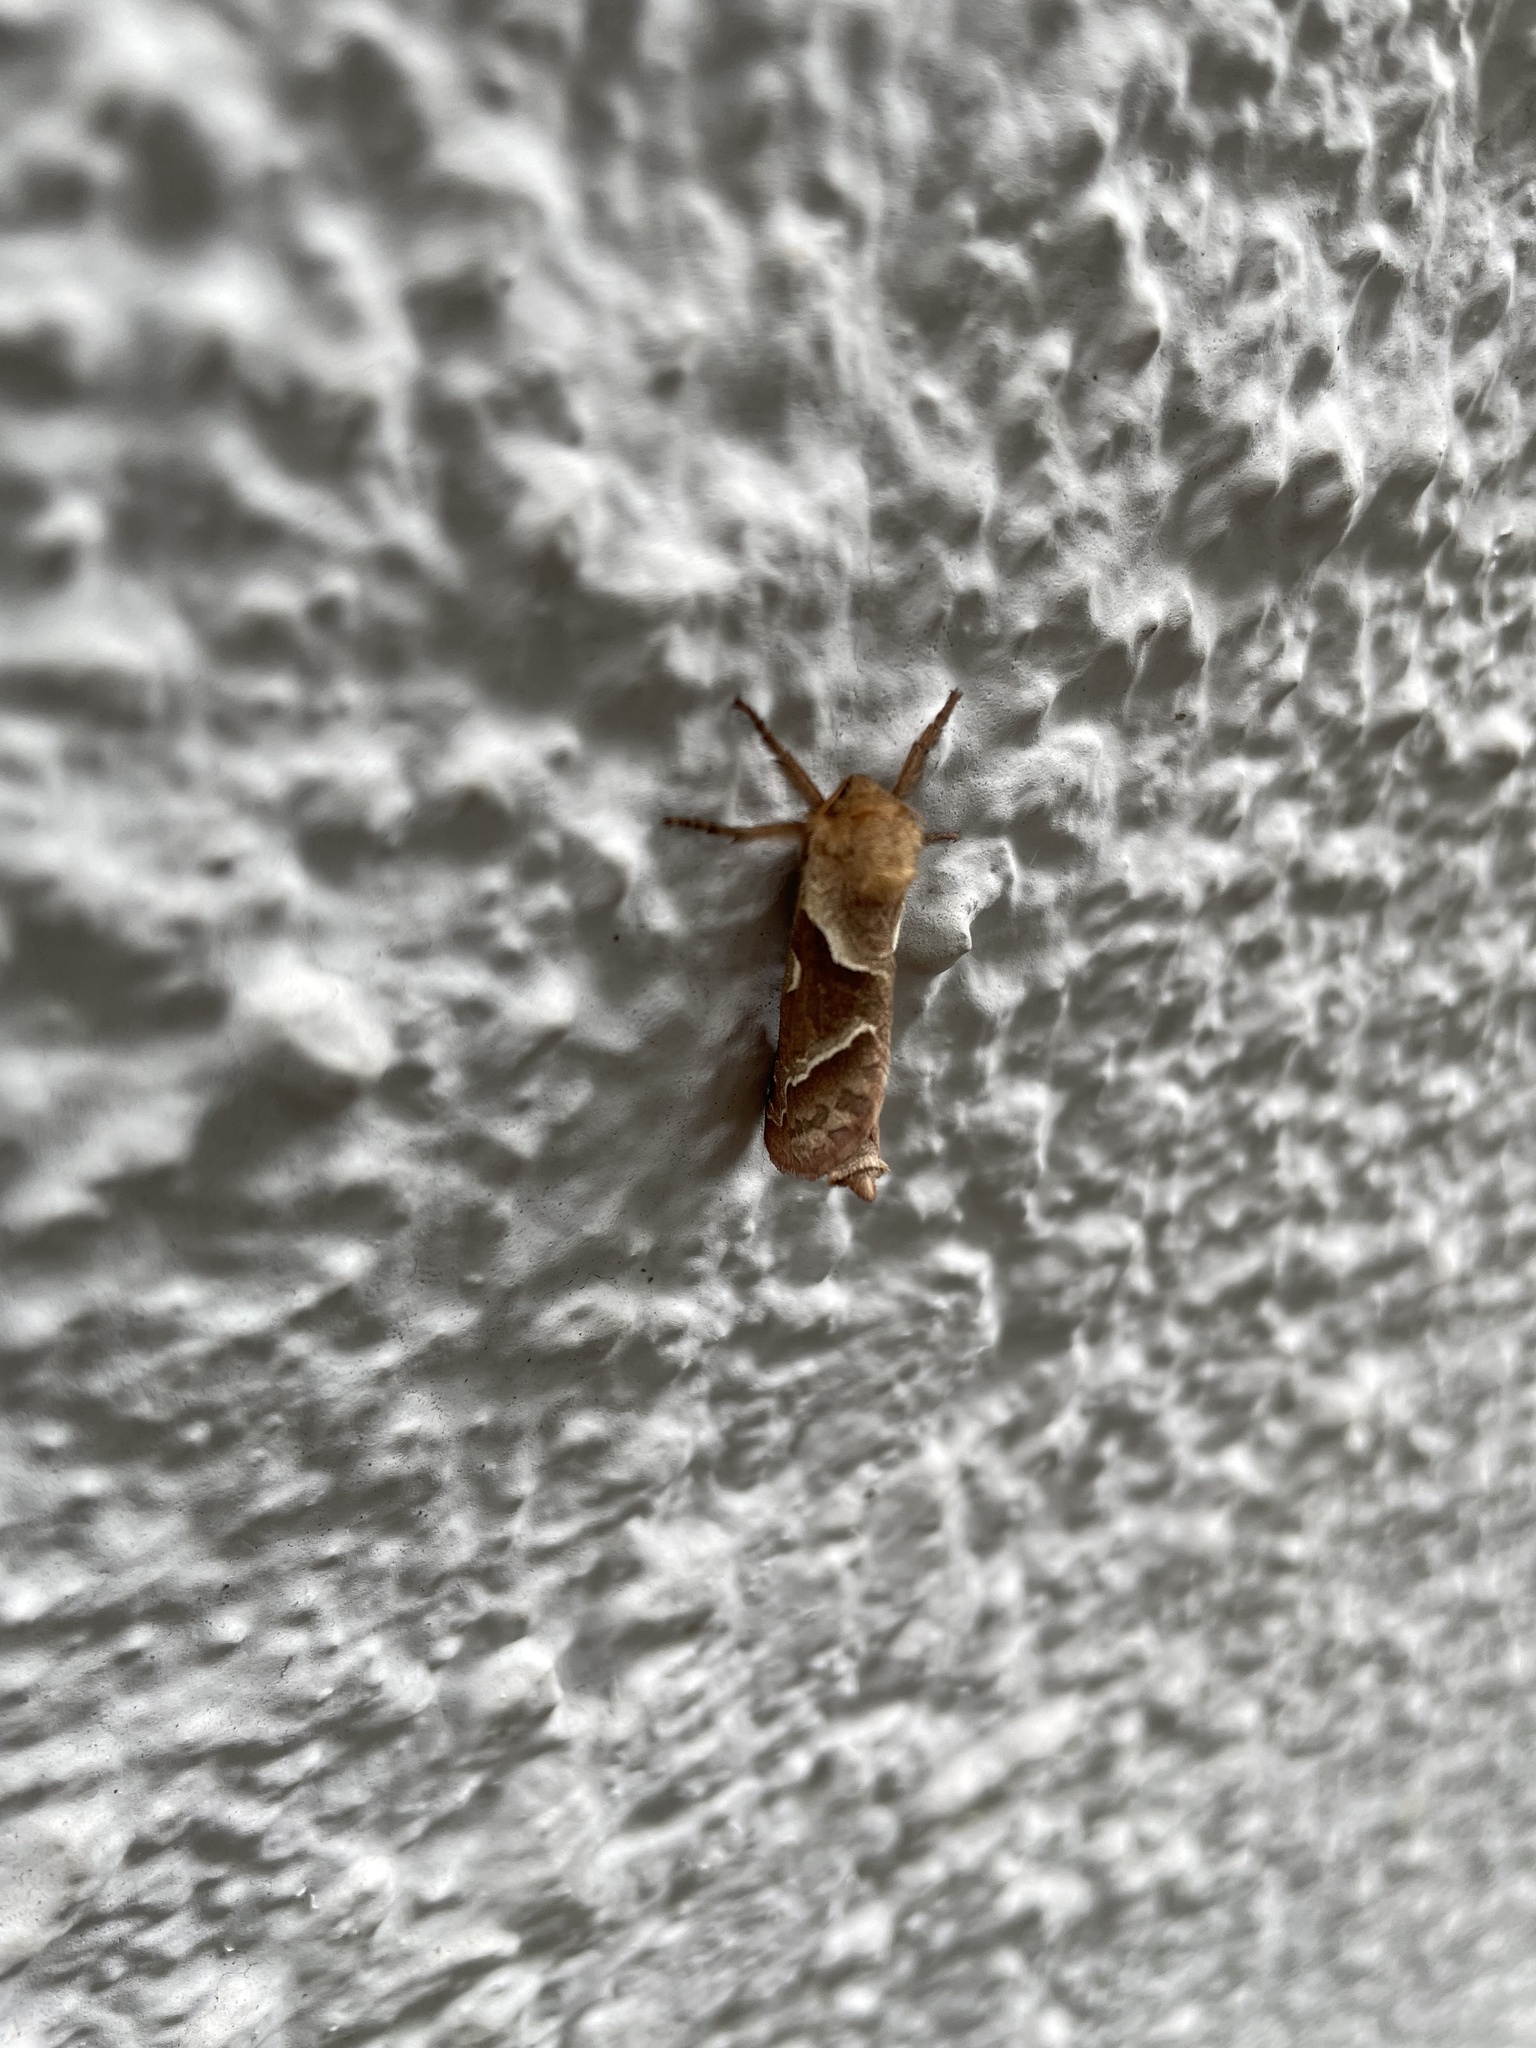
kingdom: Animalia
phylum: Arthropoda
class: Insecta
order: Lepidoptera
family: Hepialidae
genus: Triodia
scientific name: Triodia sylvina
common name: Orange swift
